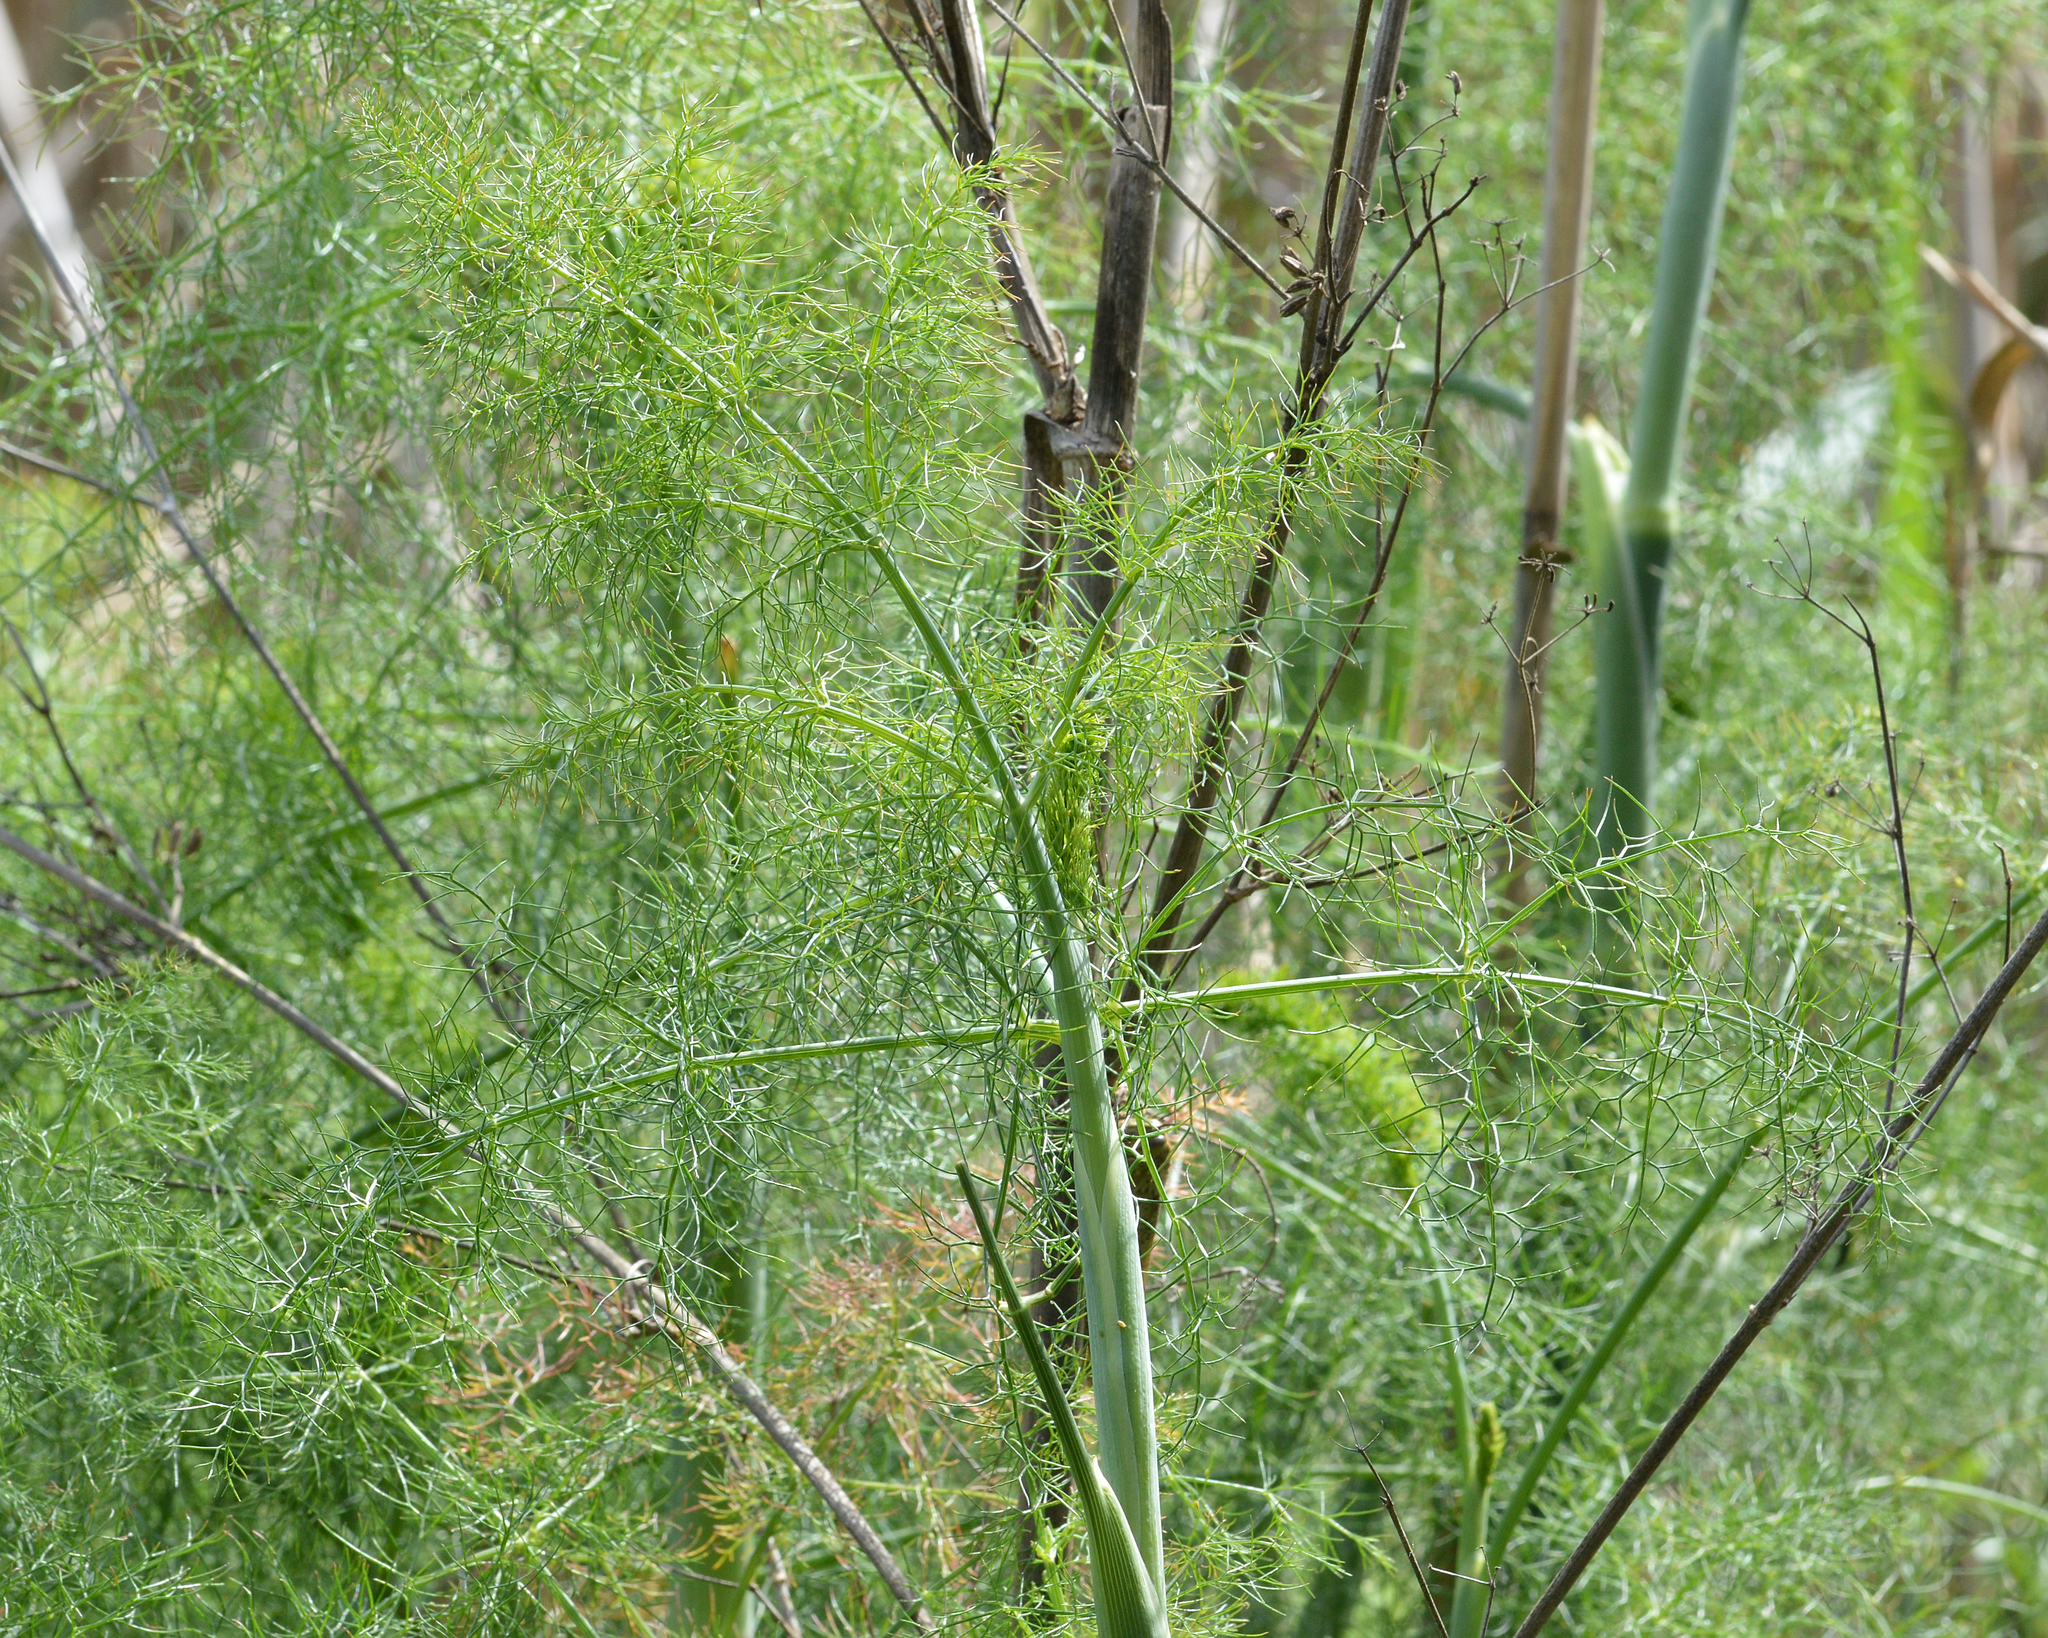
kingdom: Plantae
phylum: Tracheophyta
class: Magnoliopsida
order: Apiales
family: Apiaceae
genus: Foeniculum
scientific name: Foeniculum vulgare
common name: Fennel
